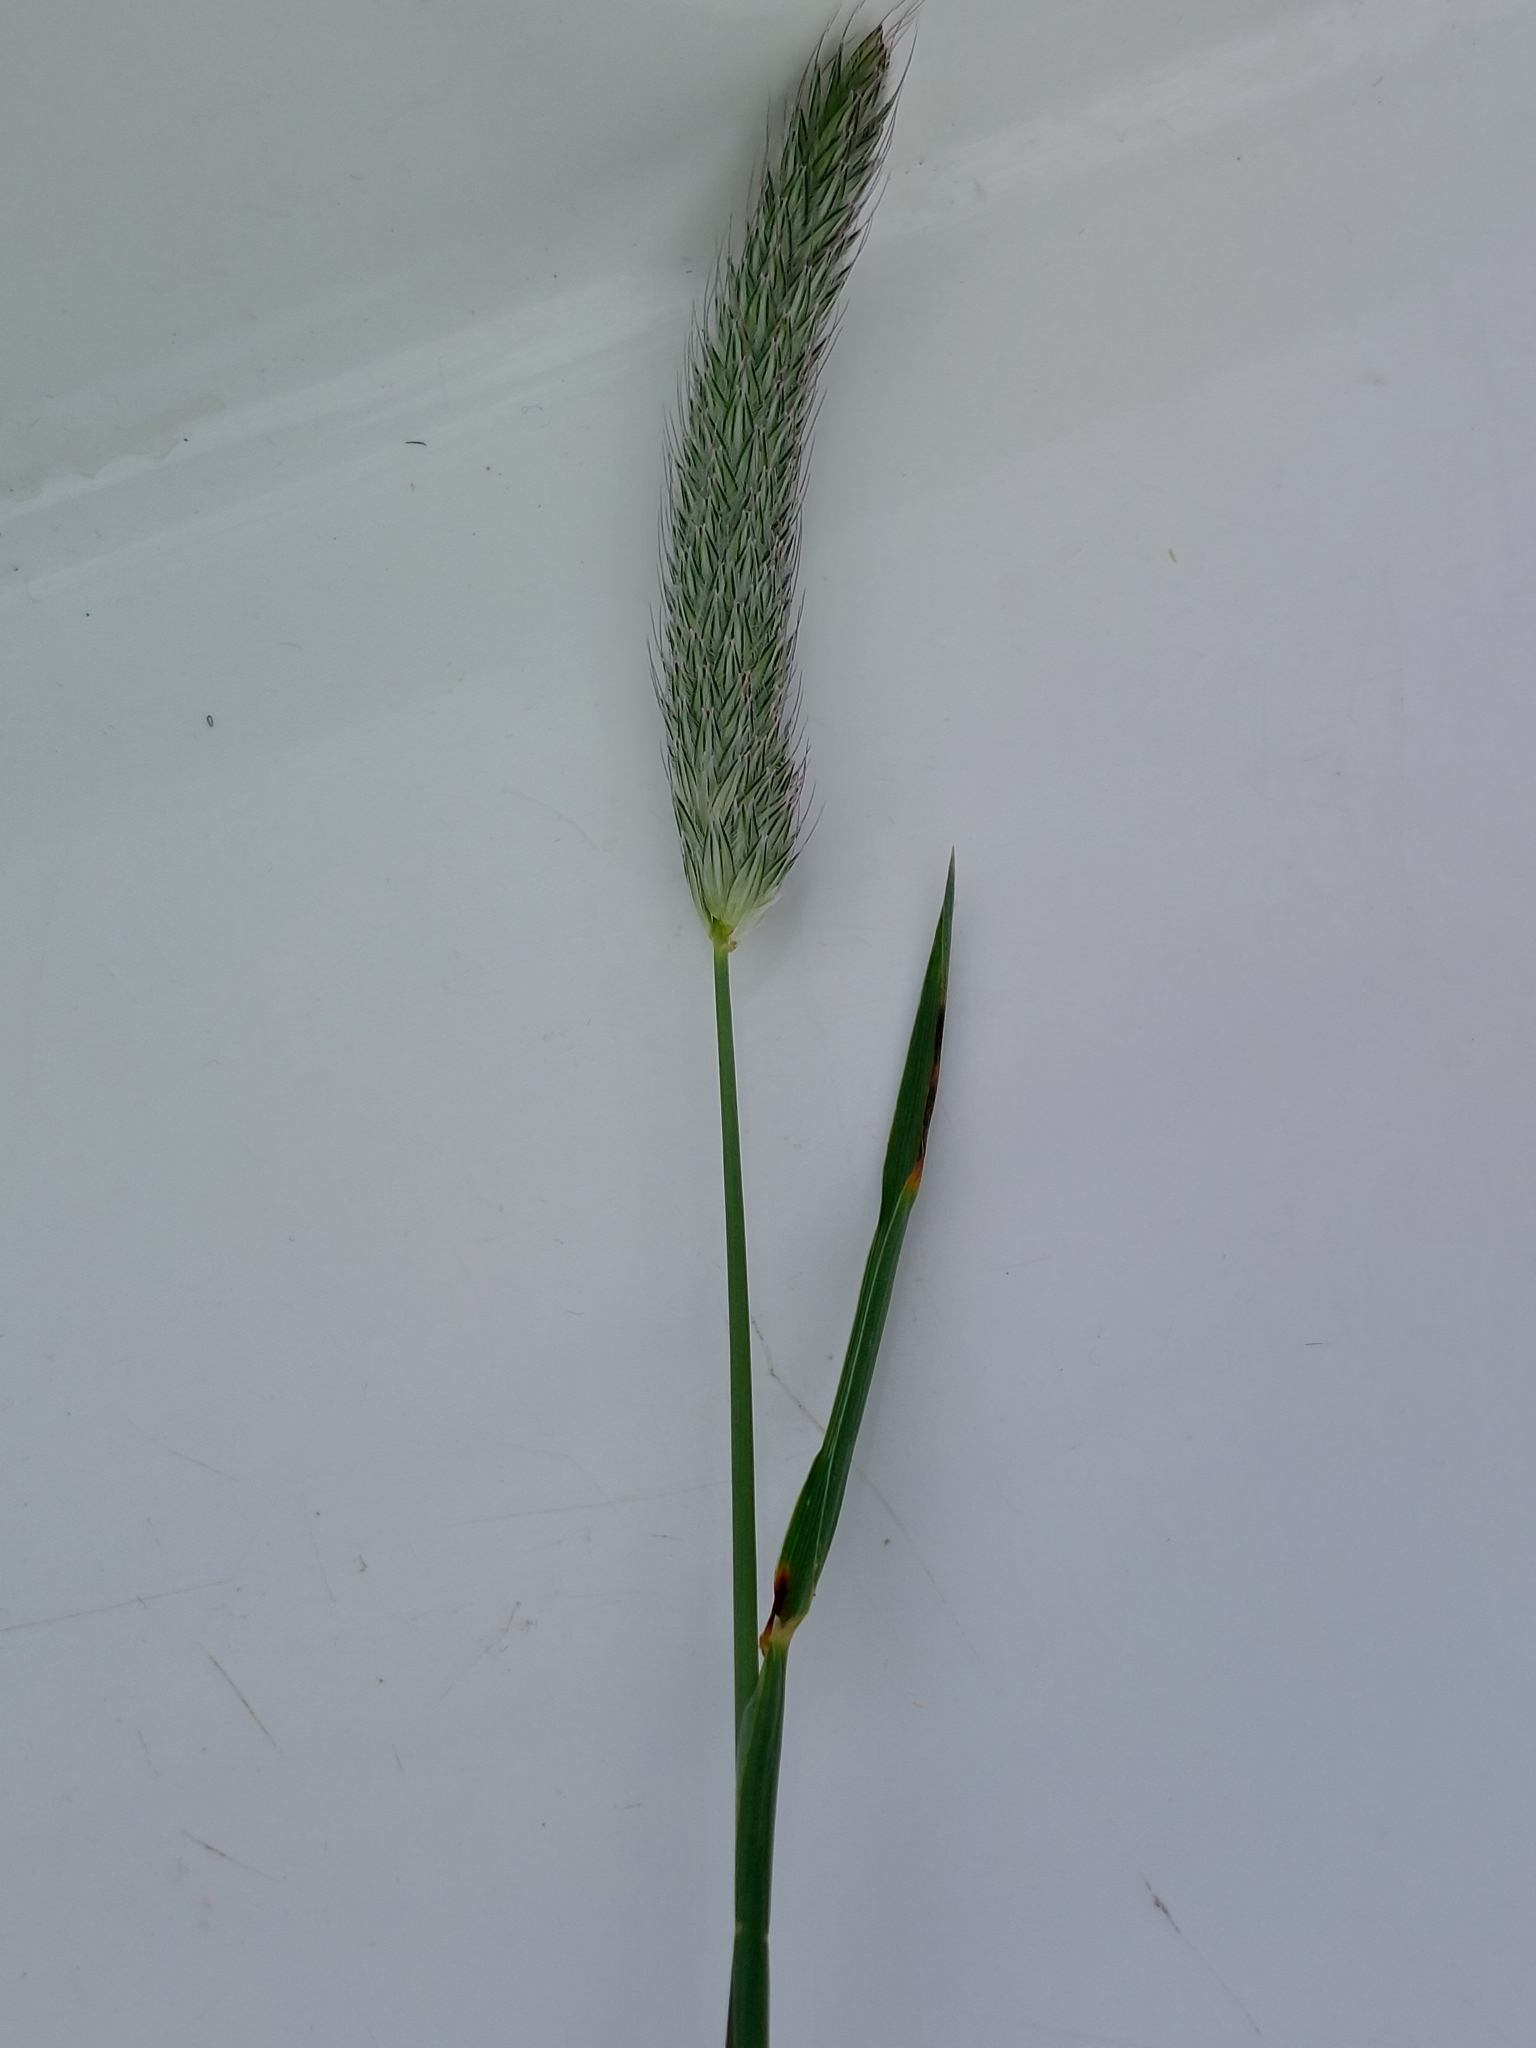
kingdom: Plantae
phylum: Tracheophyta
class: Liliopsida
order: Poales
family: Poaceae
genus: Alopecurus
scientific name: Alopecurus pratensis
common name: Meadow foxtail
